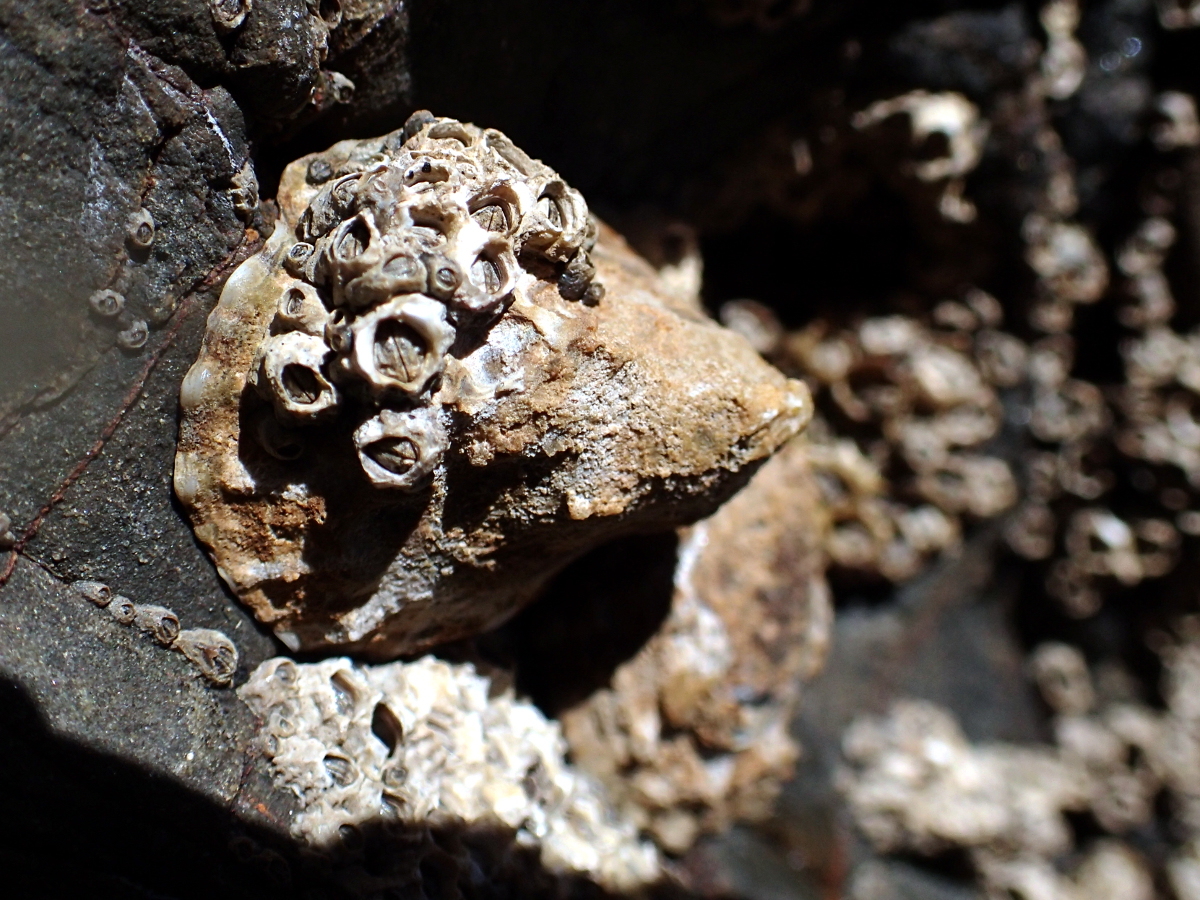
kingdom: Animalia
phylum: Mollusca
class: Gastropoda
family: Nacellidae
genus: Cellana
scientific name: Cellana ornata
